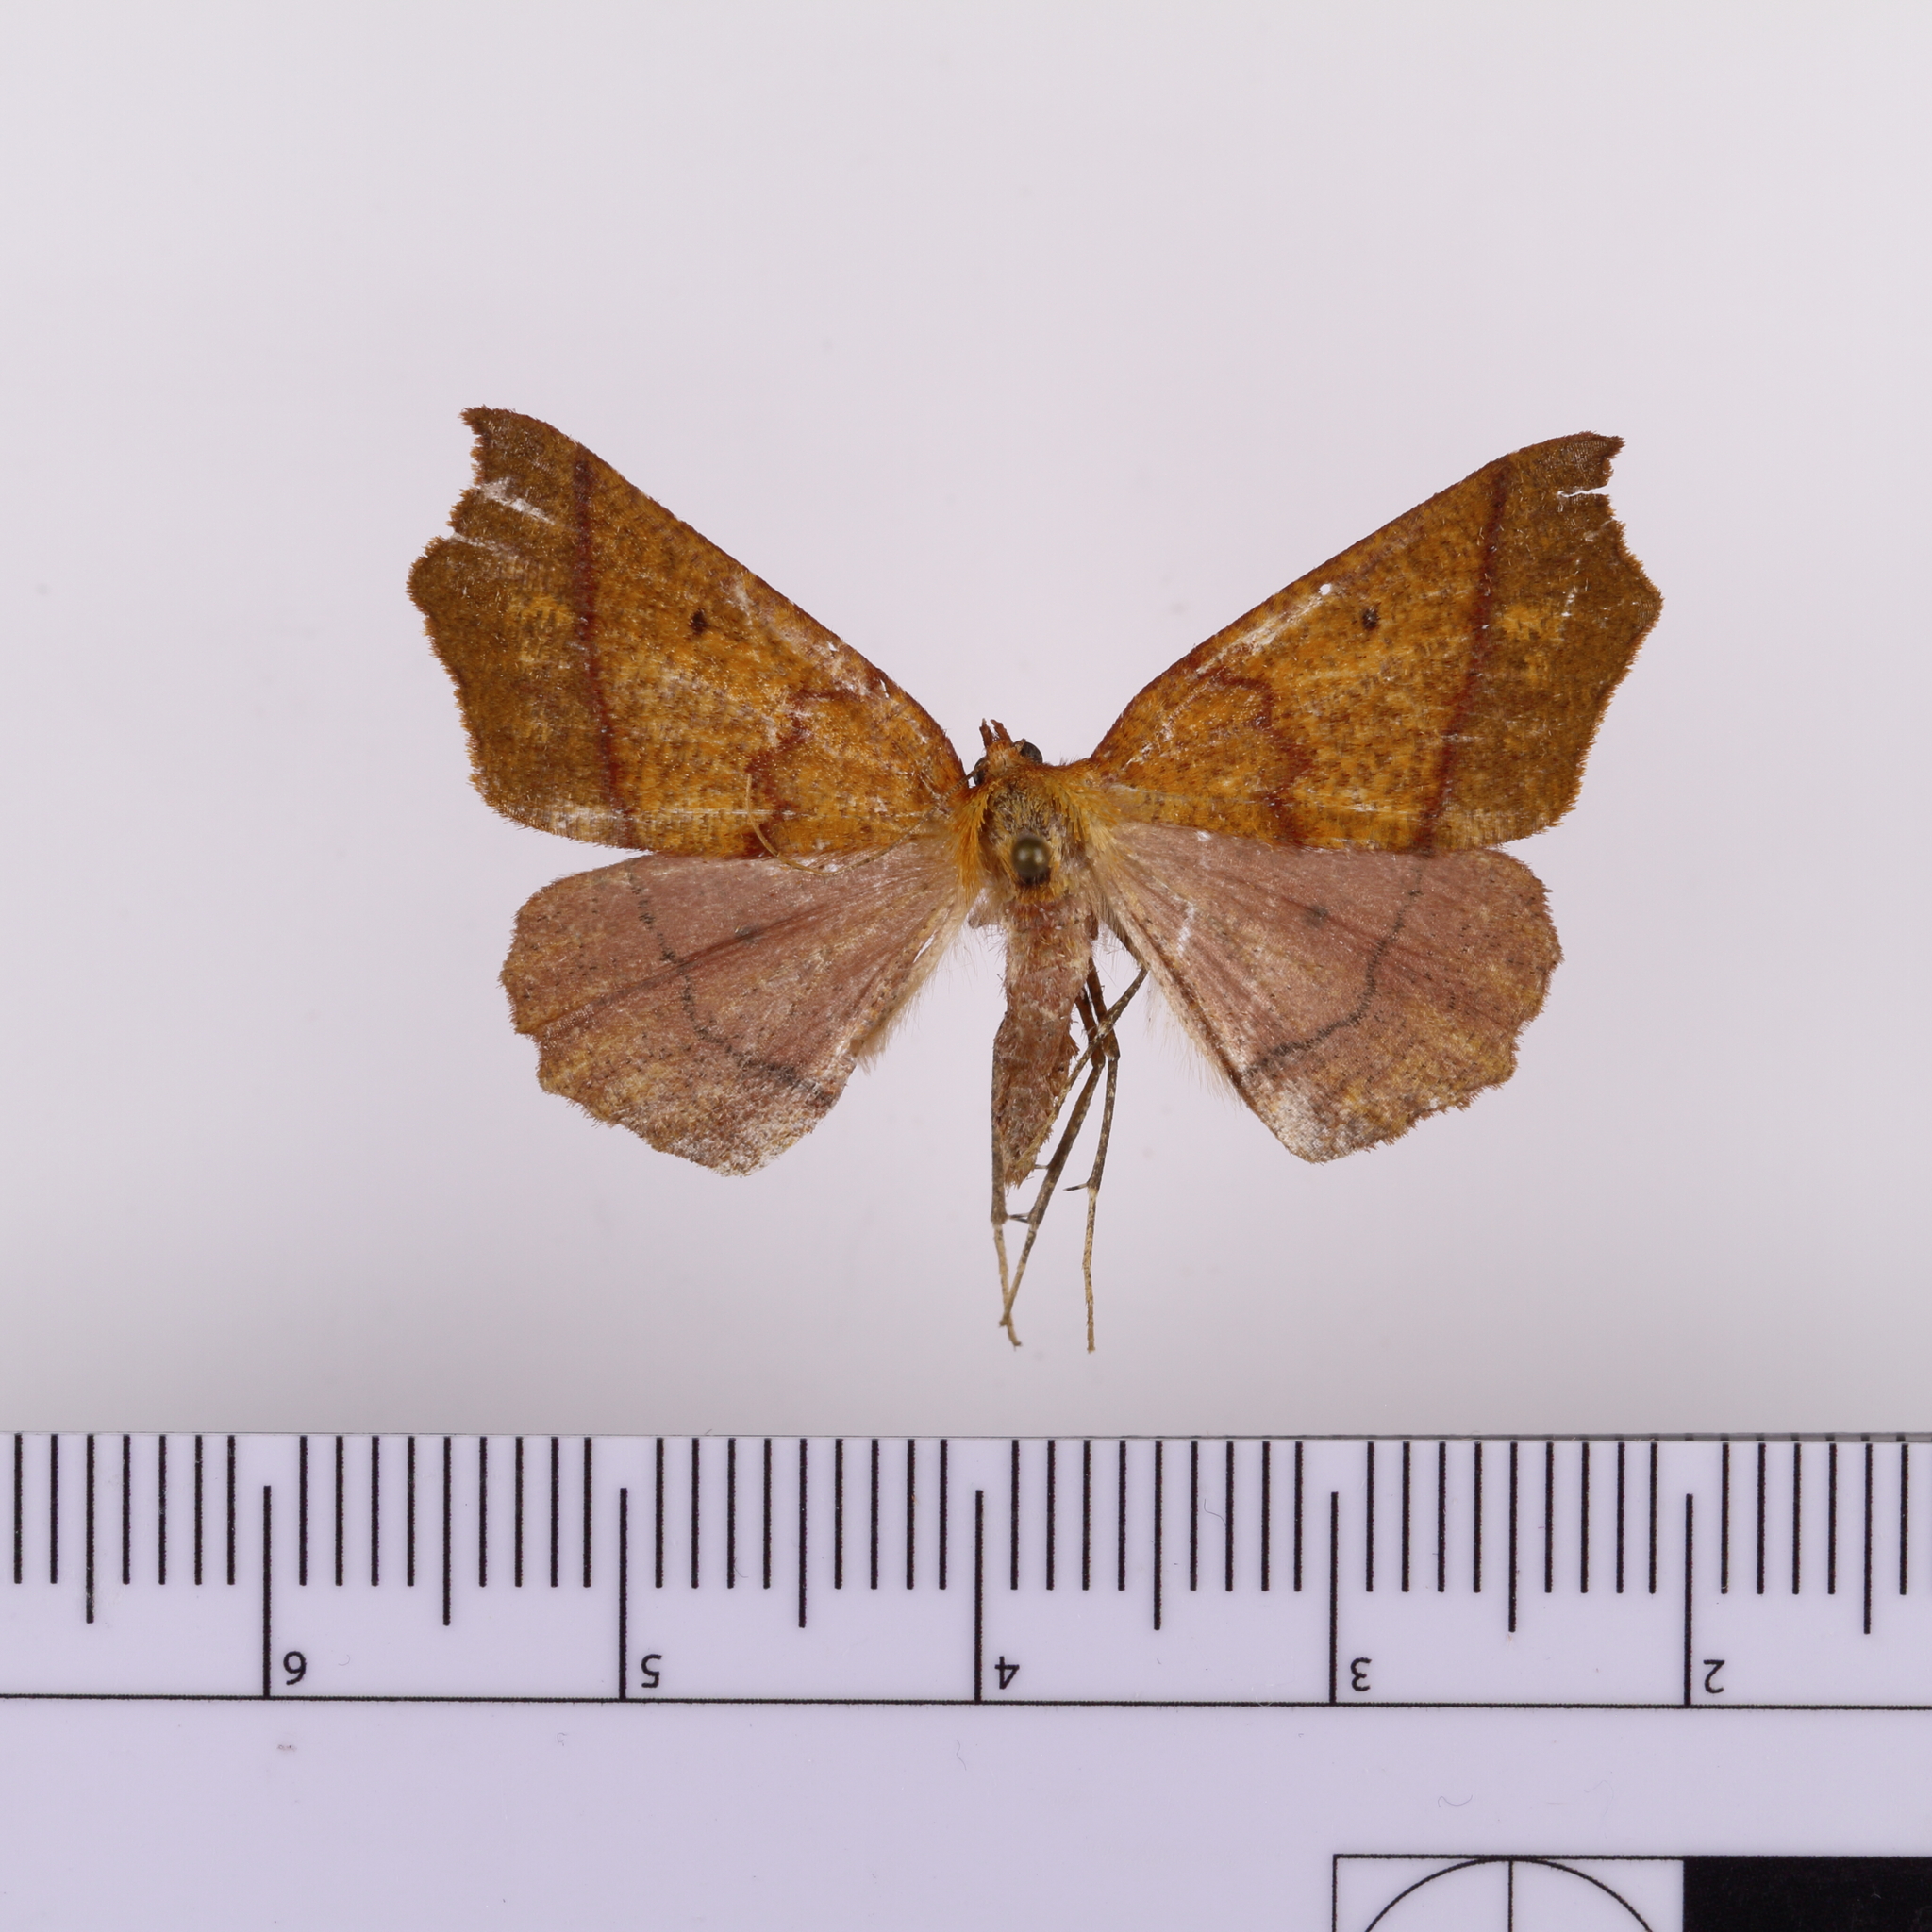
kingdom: Animalia
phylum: Arthropoda
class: Insecta
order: Lepidoptera
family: Geometridae
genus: Ischalis
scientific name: Ischalis nelsonaria
